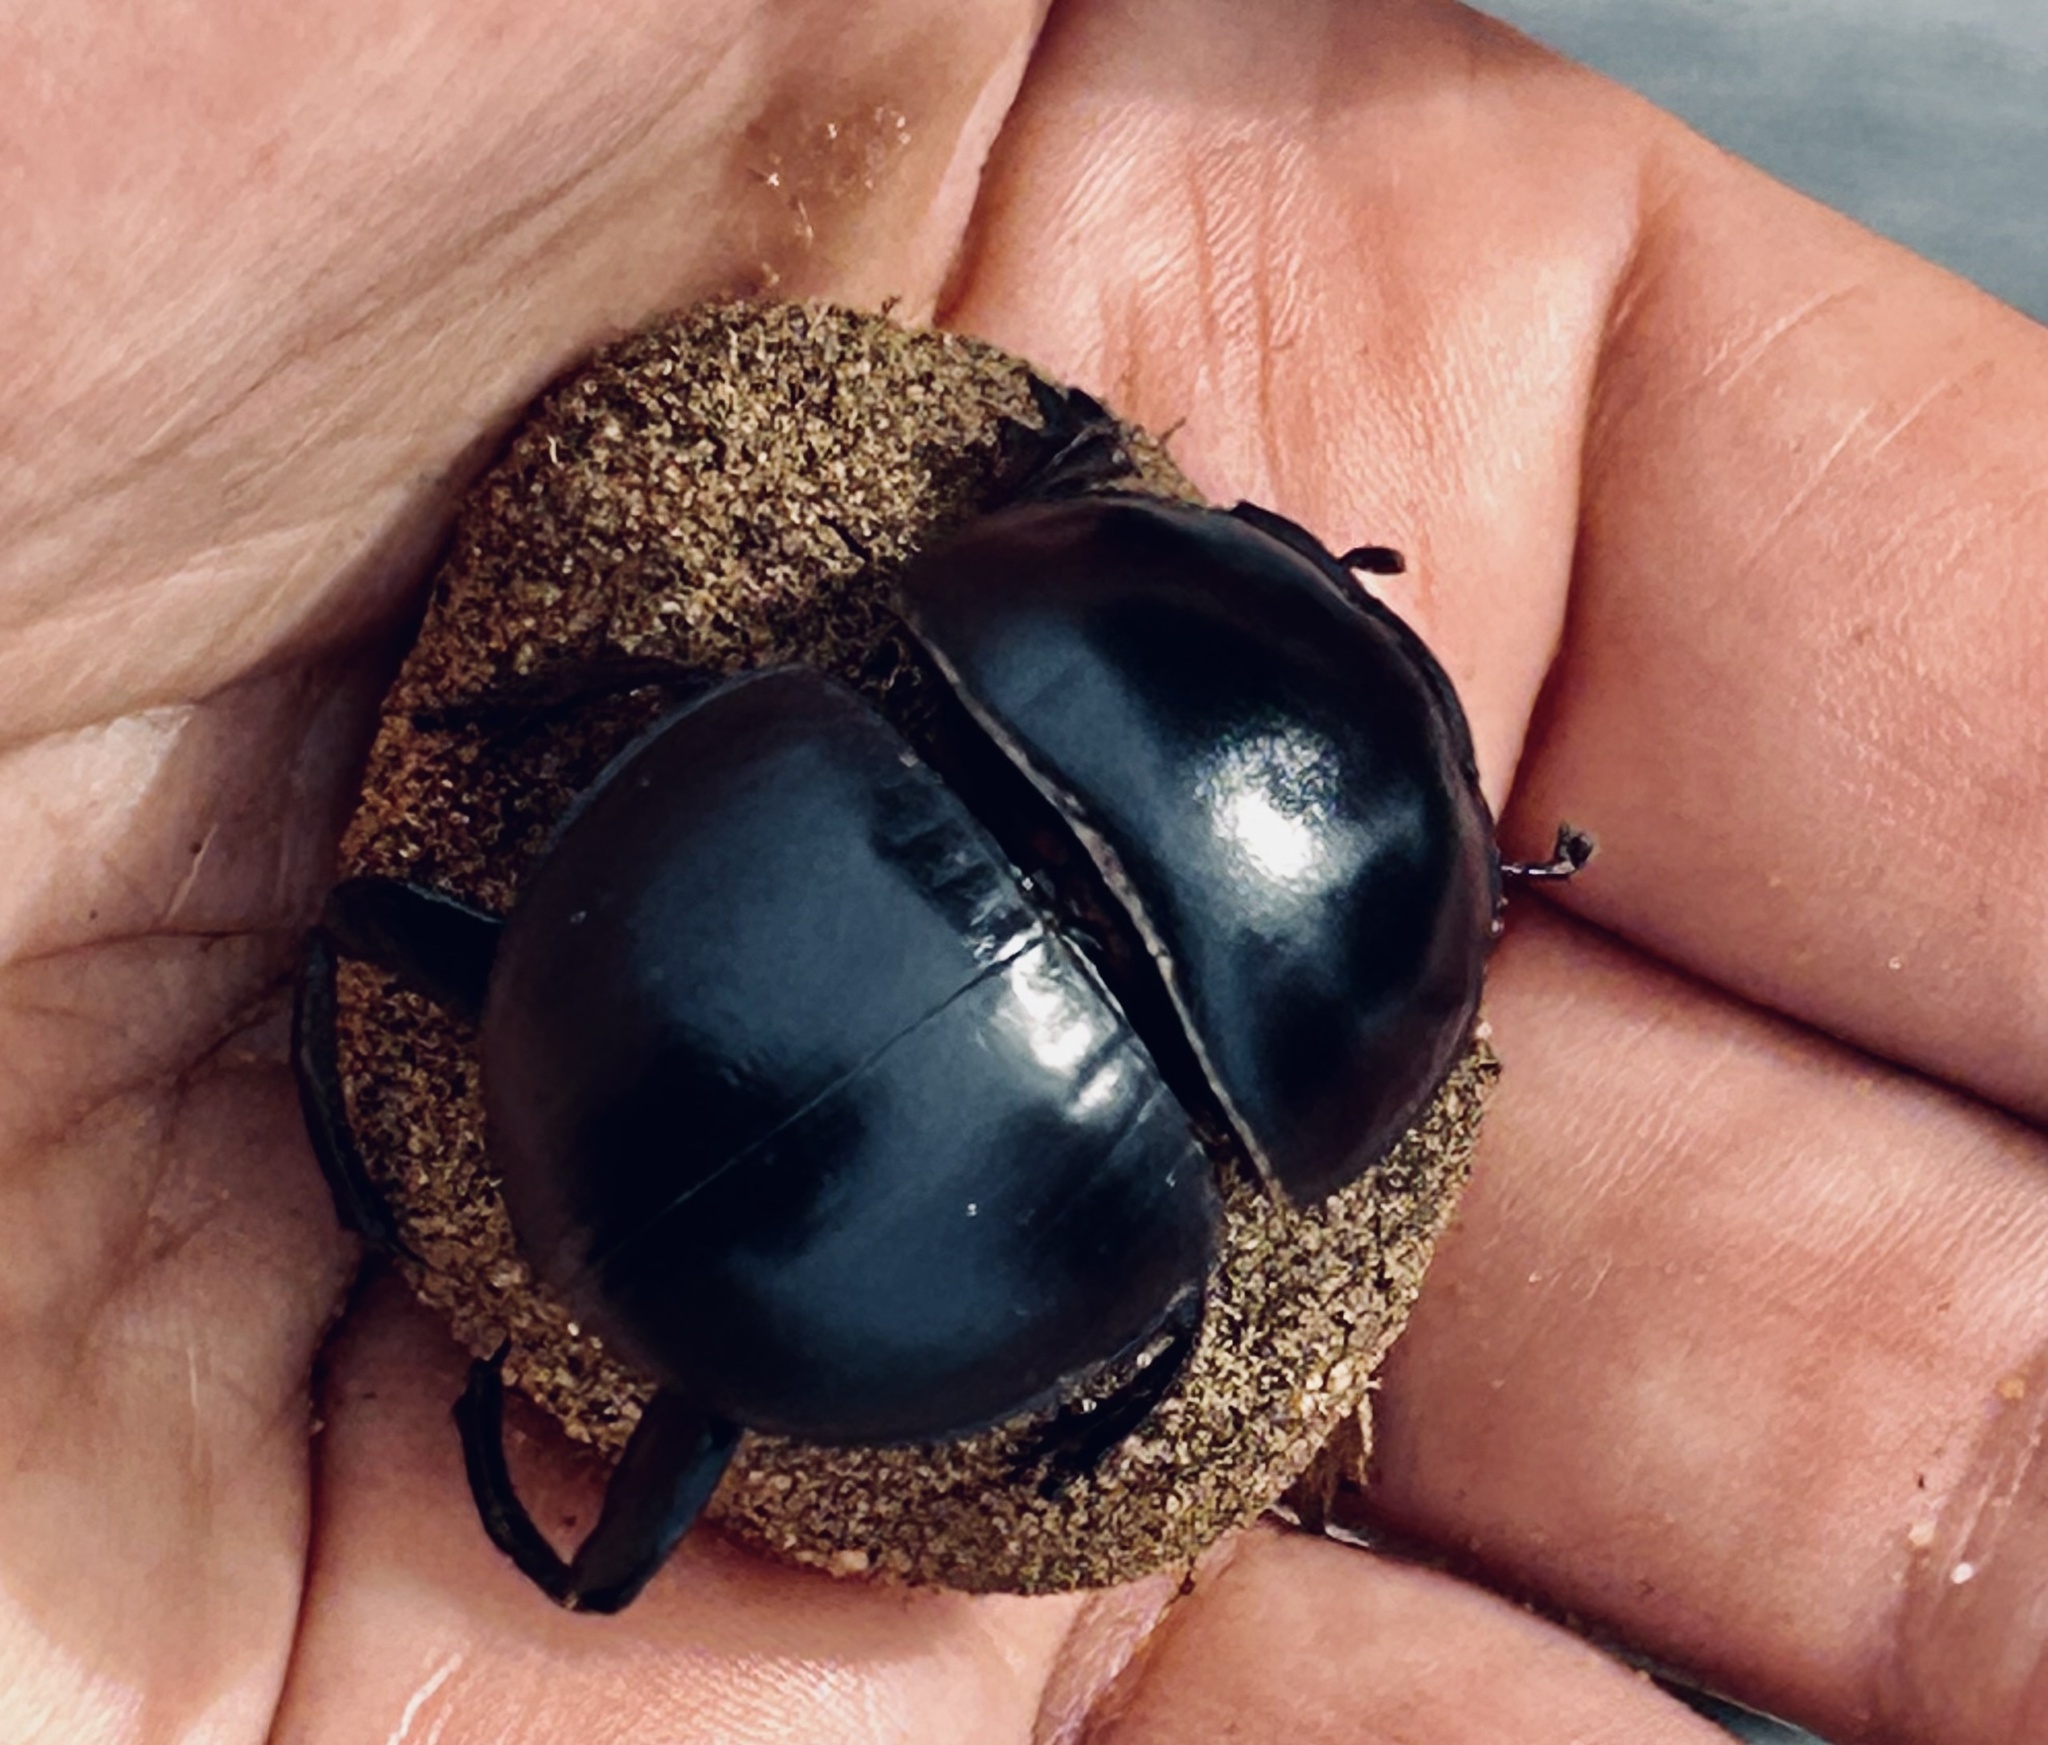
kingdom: Animalia
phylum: Arthropoda
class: Insecta
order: Coleoptera
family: Scarabaeidae
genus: Circellium
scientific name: Circellium bacchus
